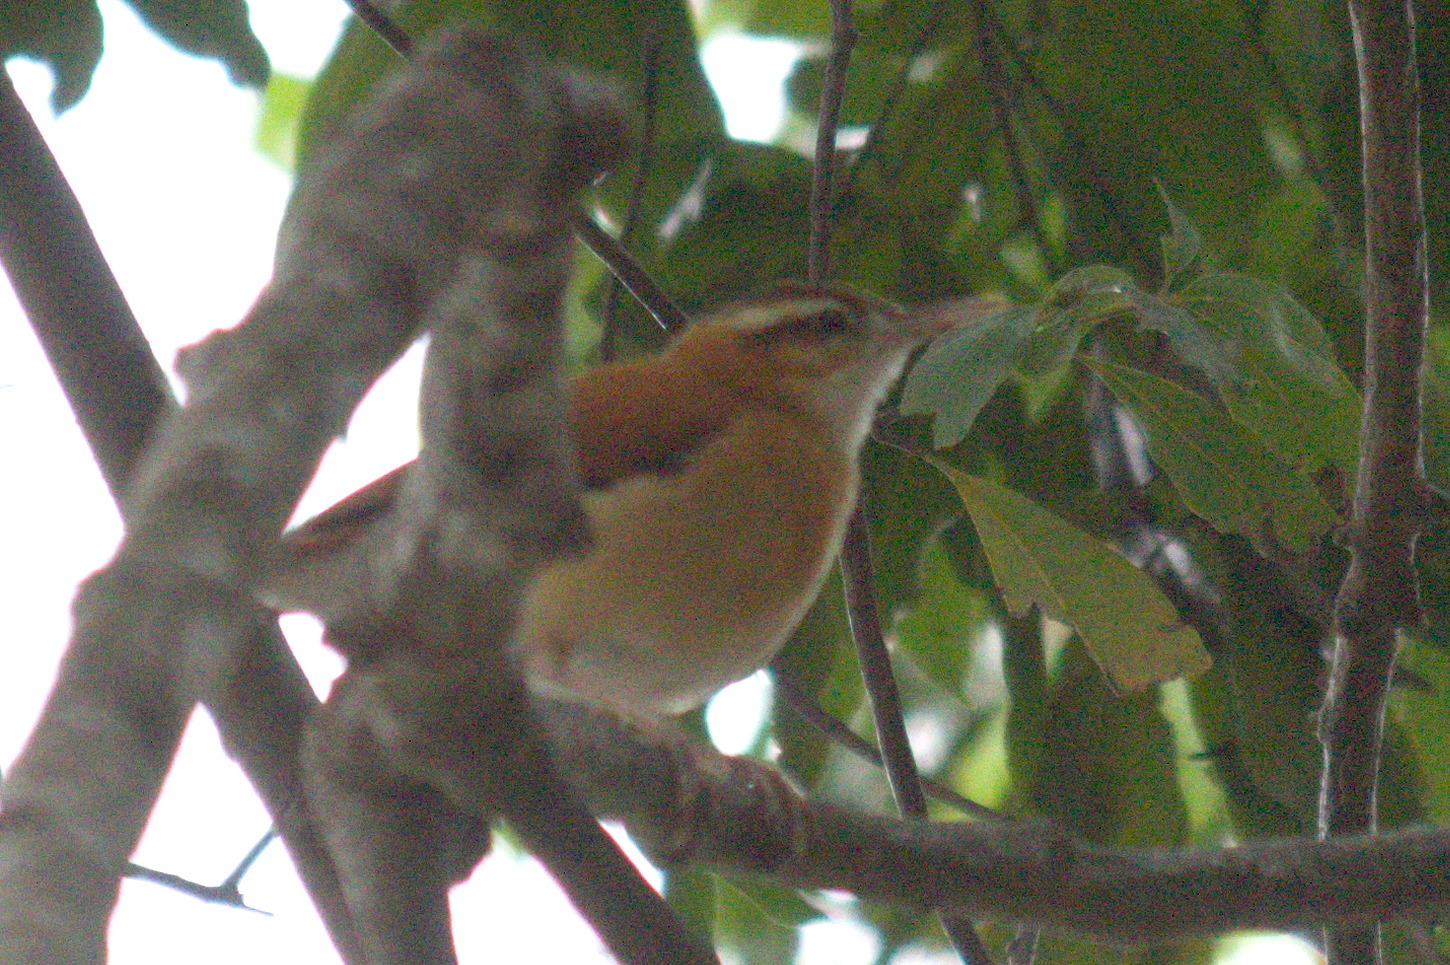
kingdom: Animalia
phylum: Chordata
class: Aves
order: Passeriformes
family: Furnariidae
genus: Furnarius
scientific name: Furnarius leucopus
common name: Pale-legged hornero
